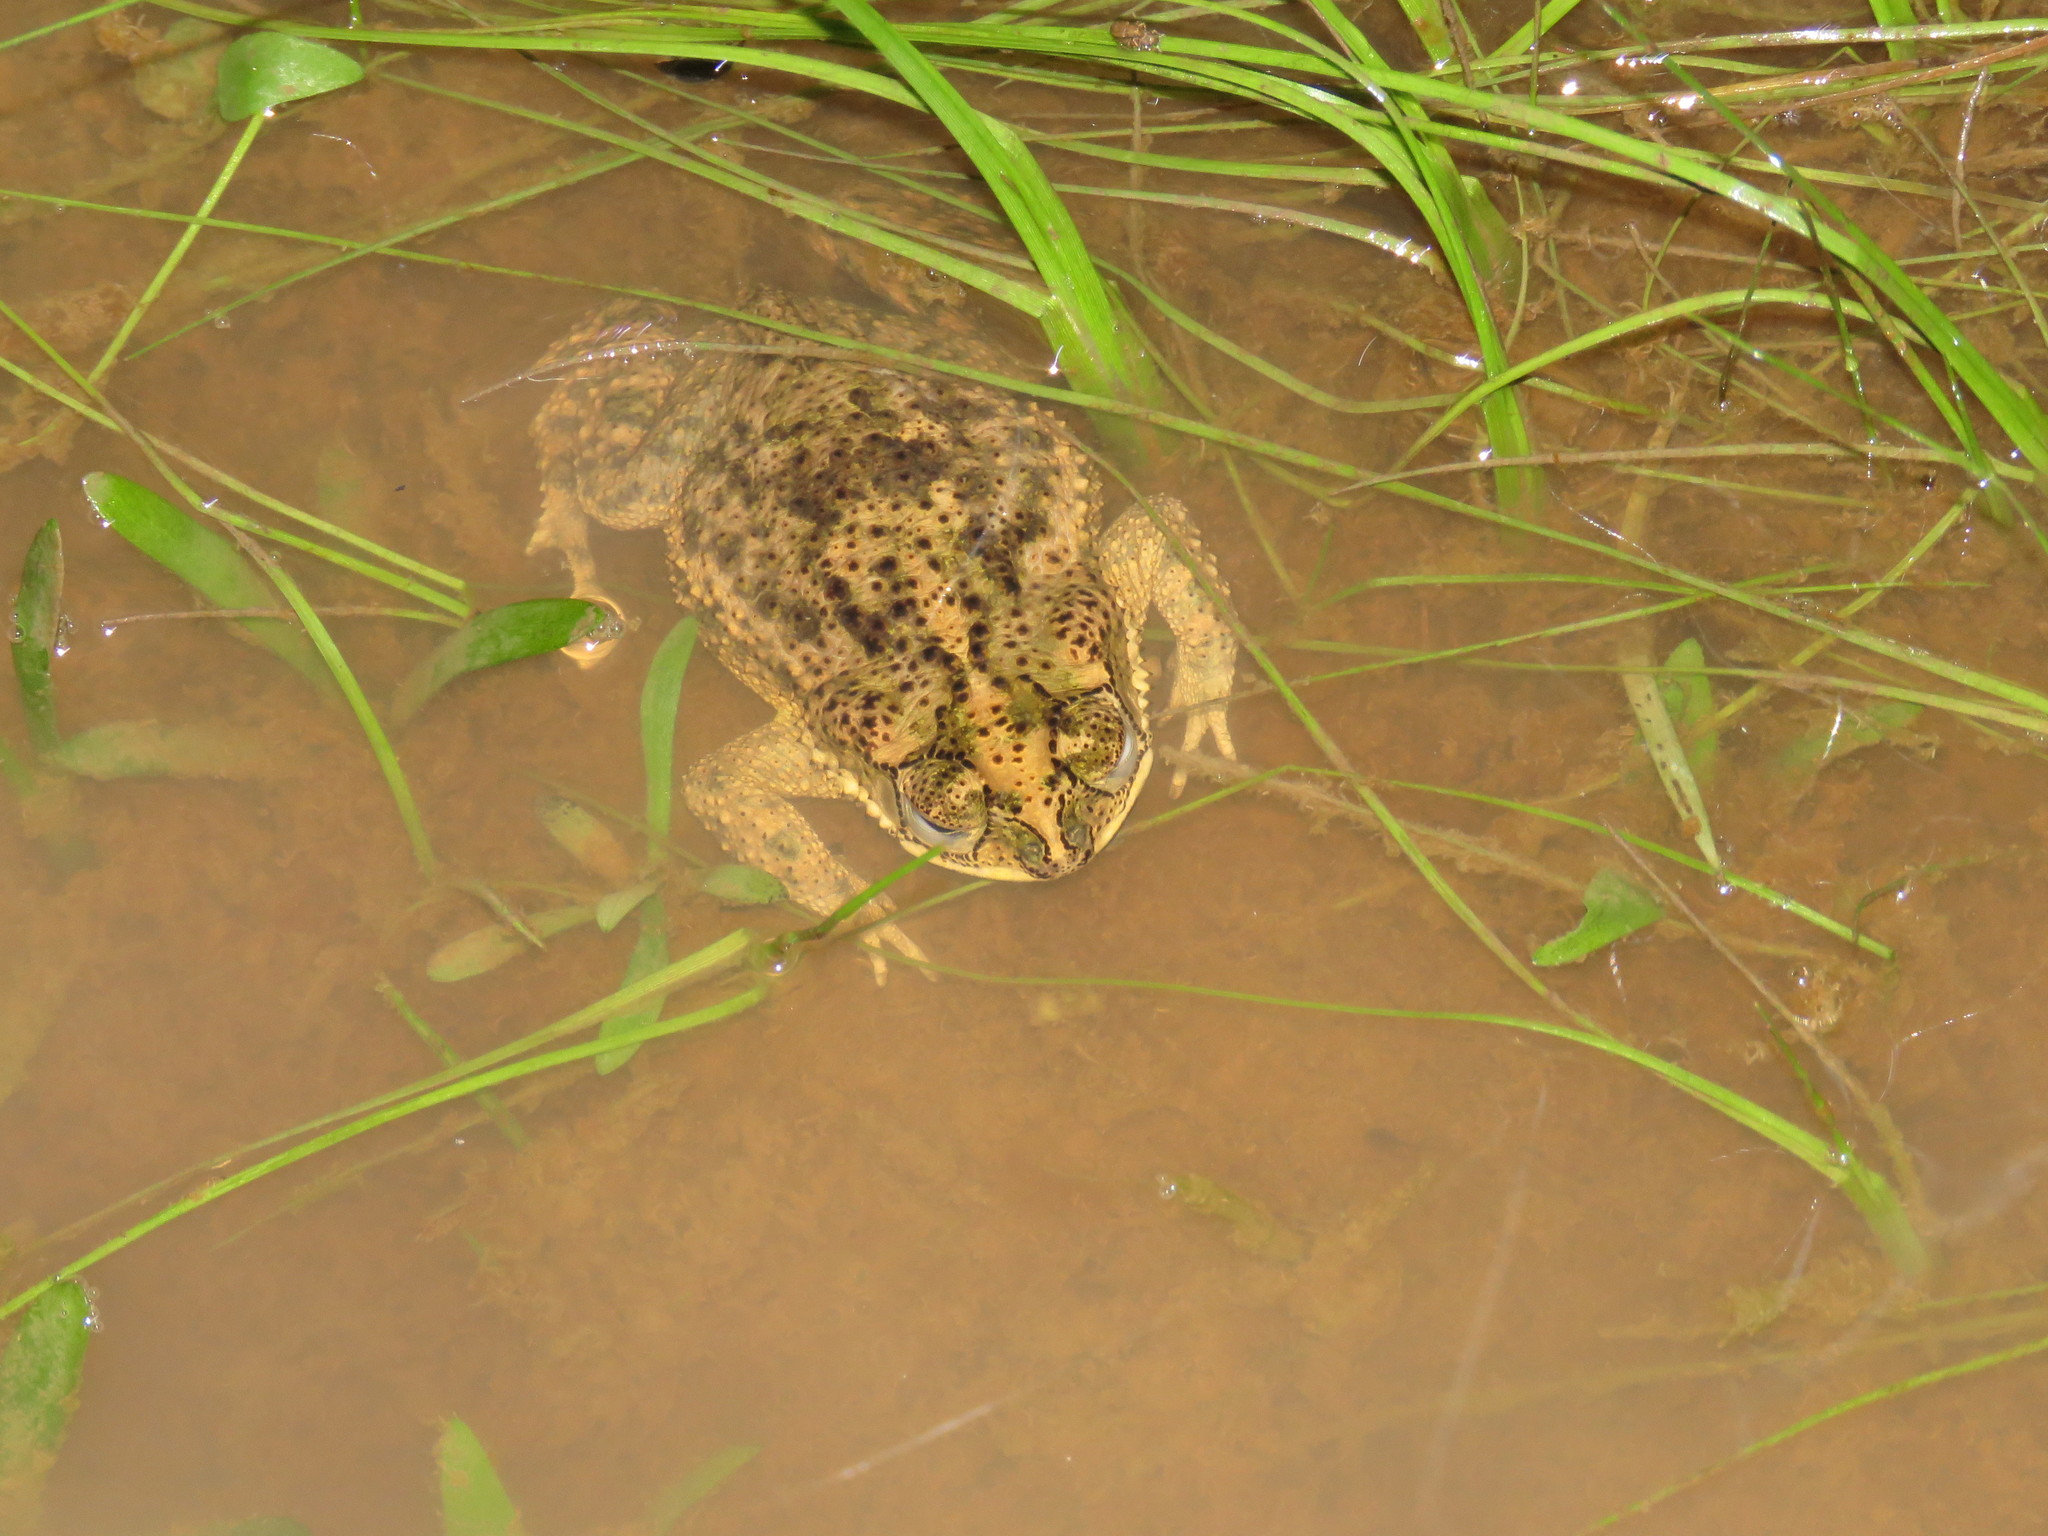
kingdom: Animalia
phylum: Chordata
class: Amphibia
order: Anura
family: Bufonidae
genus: Rhinella
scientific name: Rhinella major
